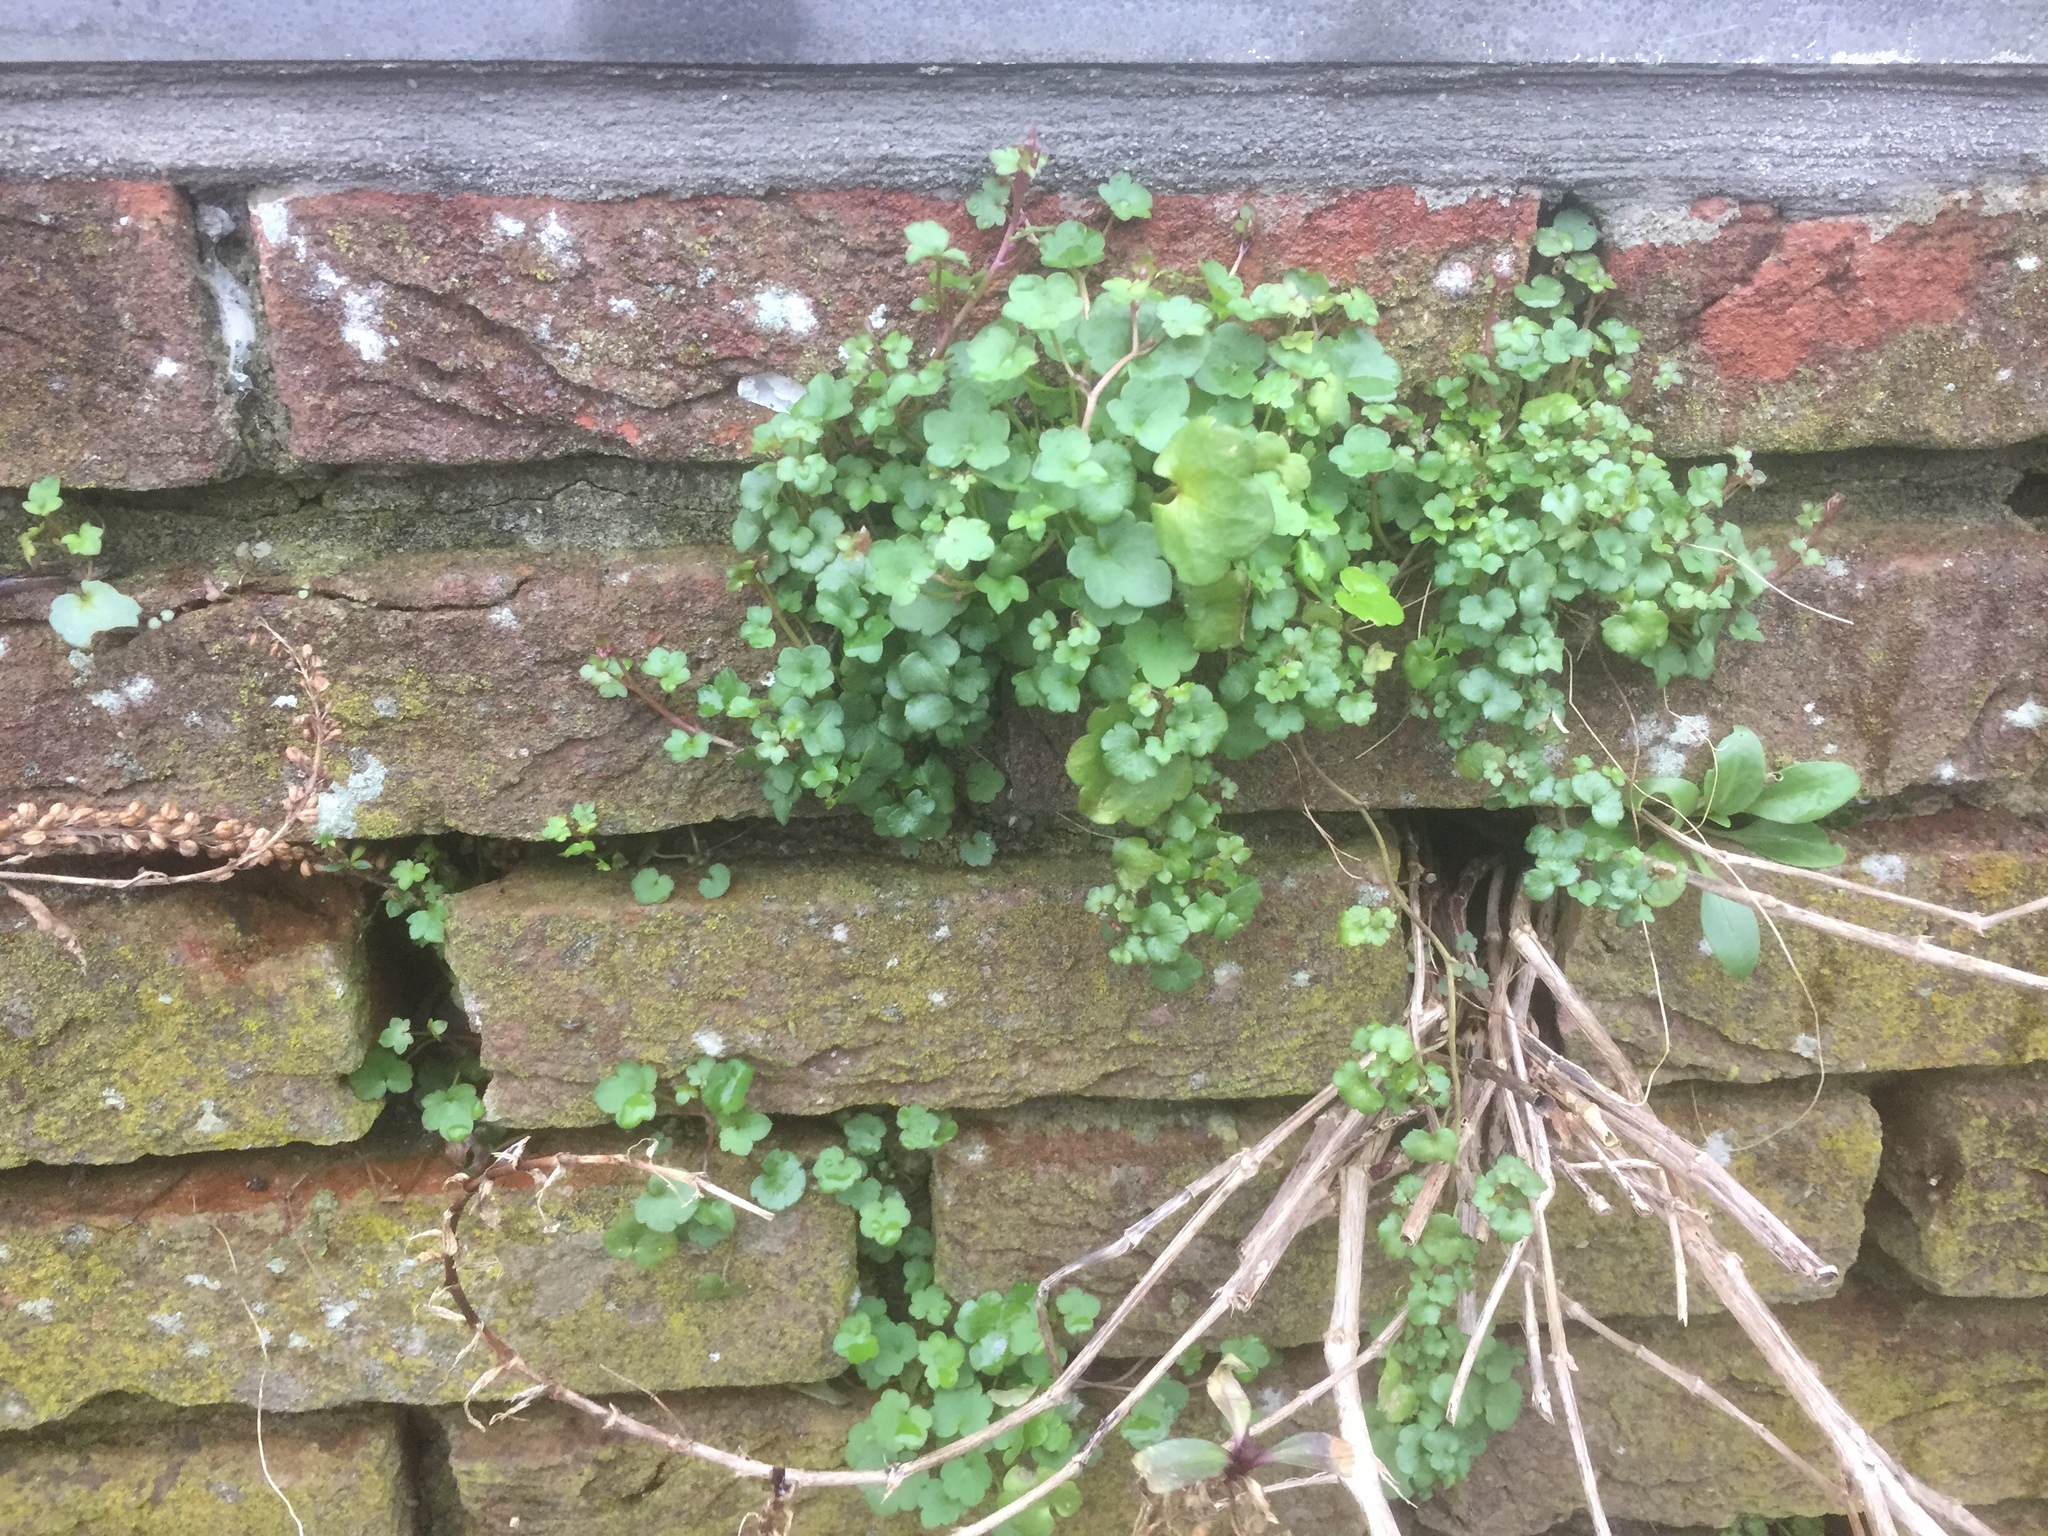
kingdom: Plantae
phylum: Tracheophyta
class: Magnoliopsida
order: Lamiales
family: Plantaginaceae
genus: Cymbalaria
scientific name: Cymbalaria muralis
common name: Ivy-leaved toadflax
